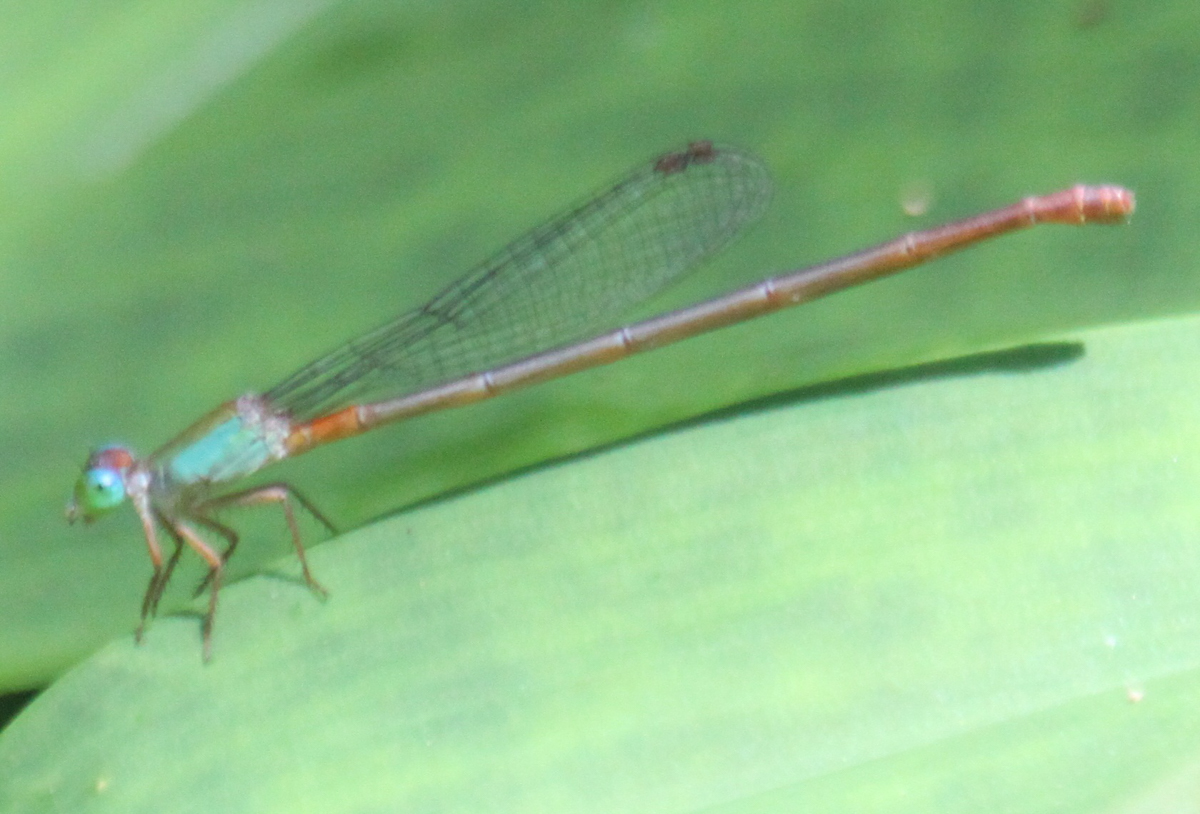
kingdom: Animalia
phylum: Arthropoda
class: Insecta
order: Odonata
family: Coenagrionidae
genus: Ceriagrion
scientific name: Ceriagrion cerinorubellum
